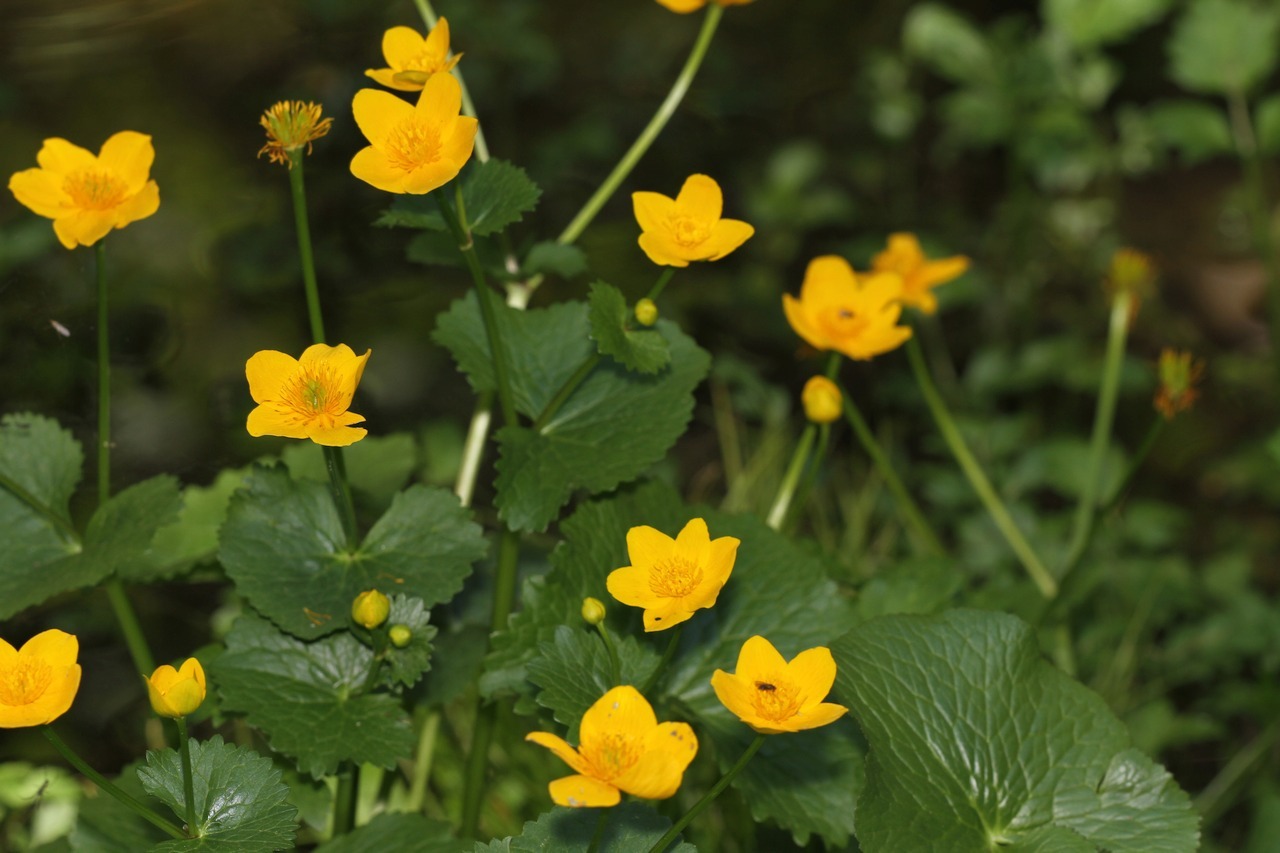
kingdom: Plantae
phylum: Tracheophyta
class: Magnoliopsida
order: Ranunculales
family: Ranunculaceae
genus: Caltha
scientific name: Caltha palustris
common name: Marsh marigold
